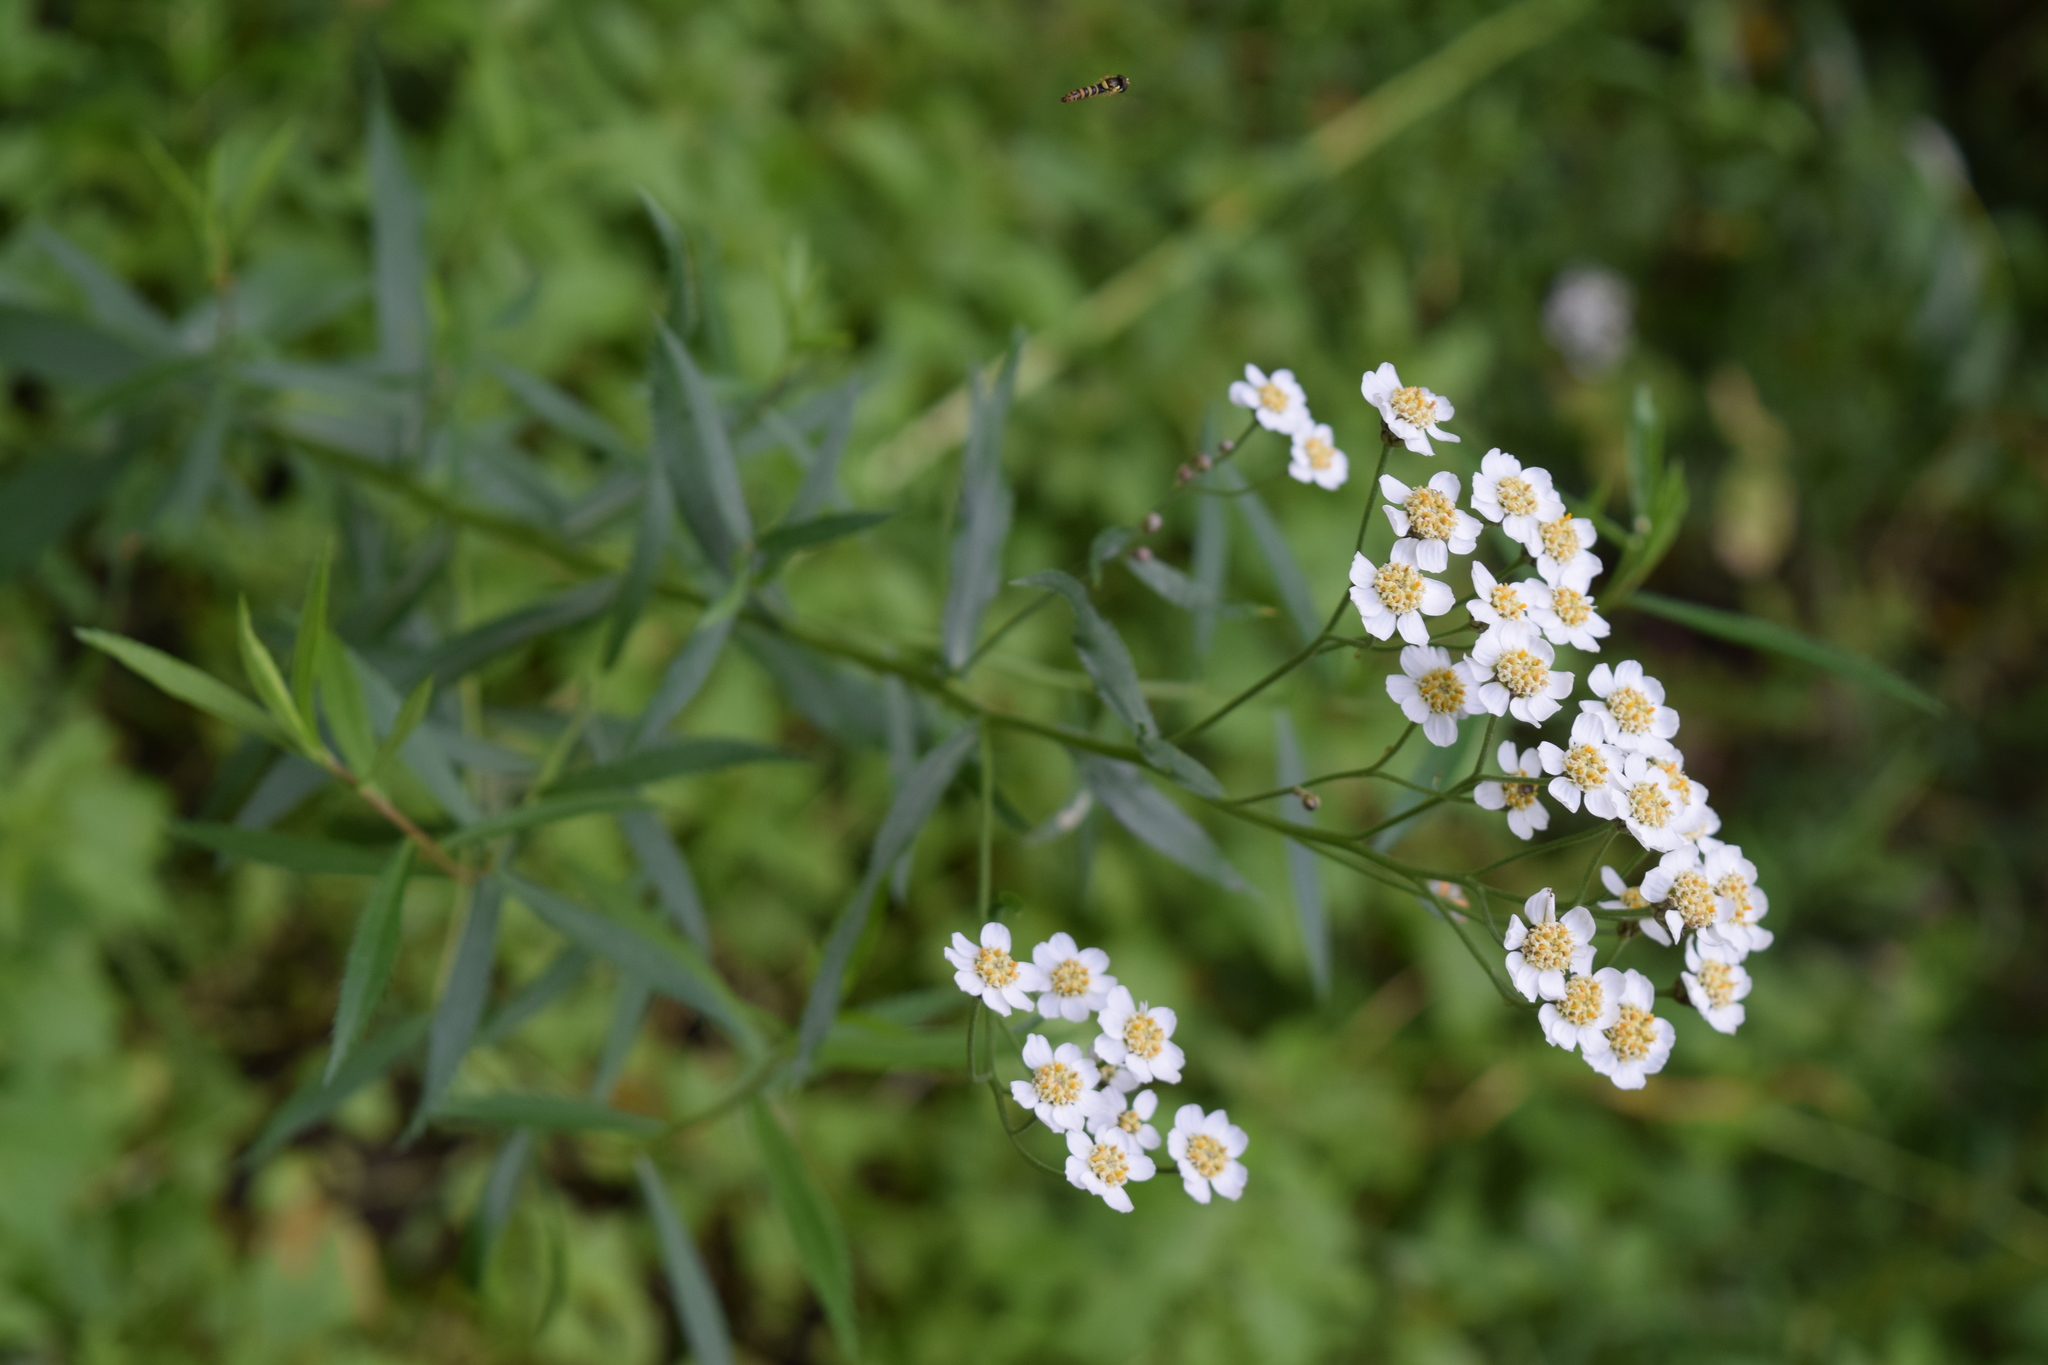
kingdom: Plantae
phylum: Tracheophyta
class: Magnoliopsida
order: Asterales
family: Asteraceae
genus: Achillea
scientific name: Achillea salicifolia
